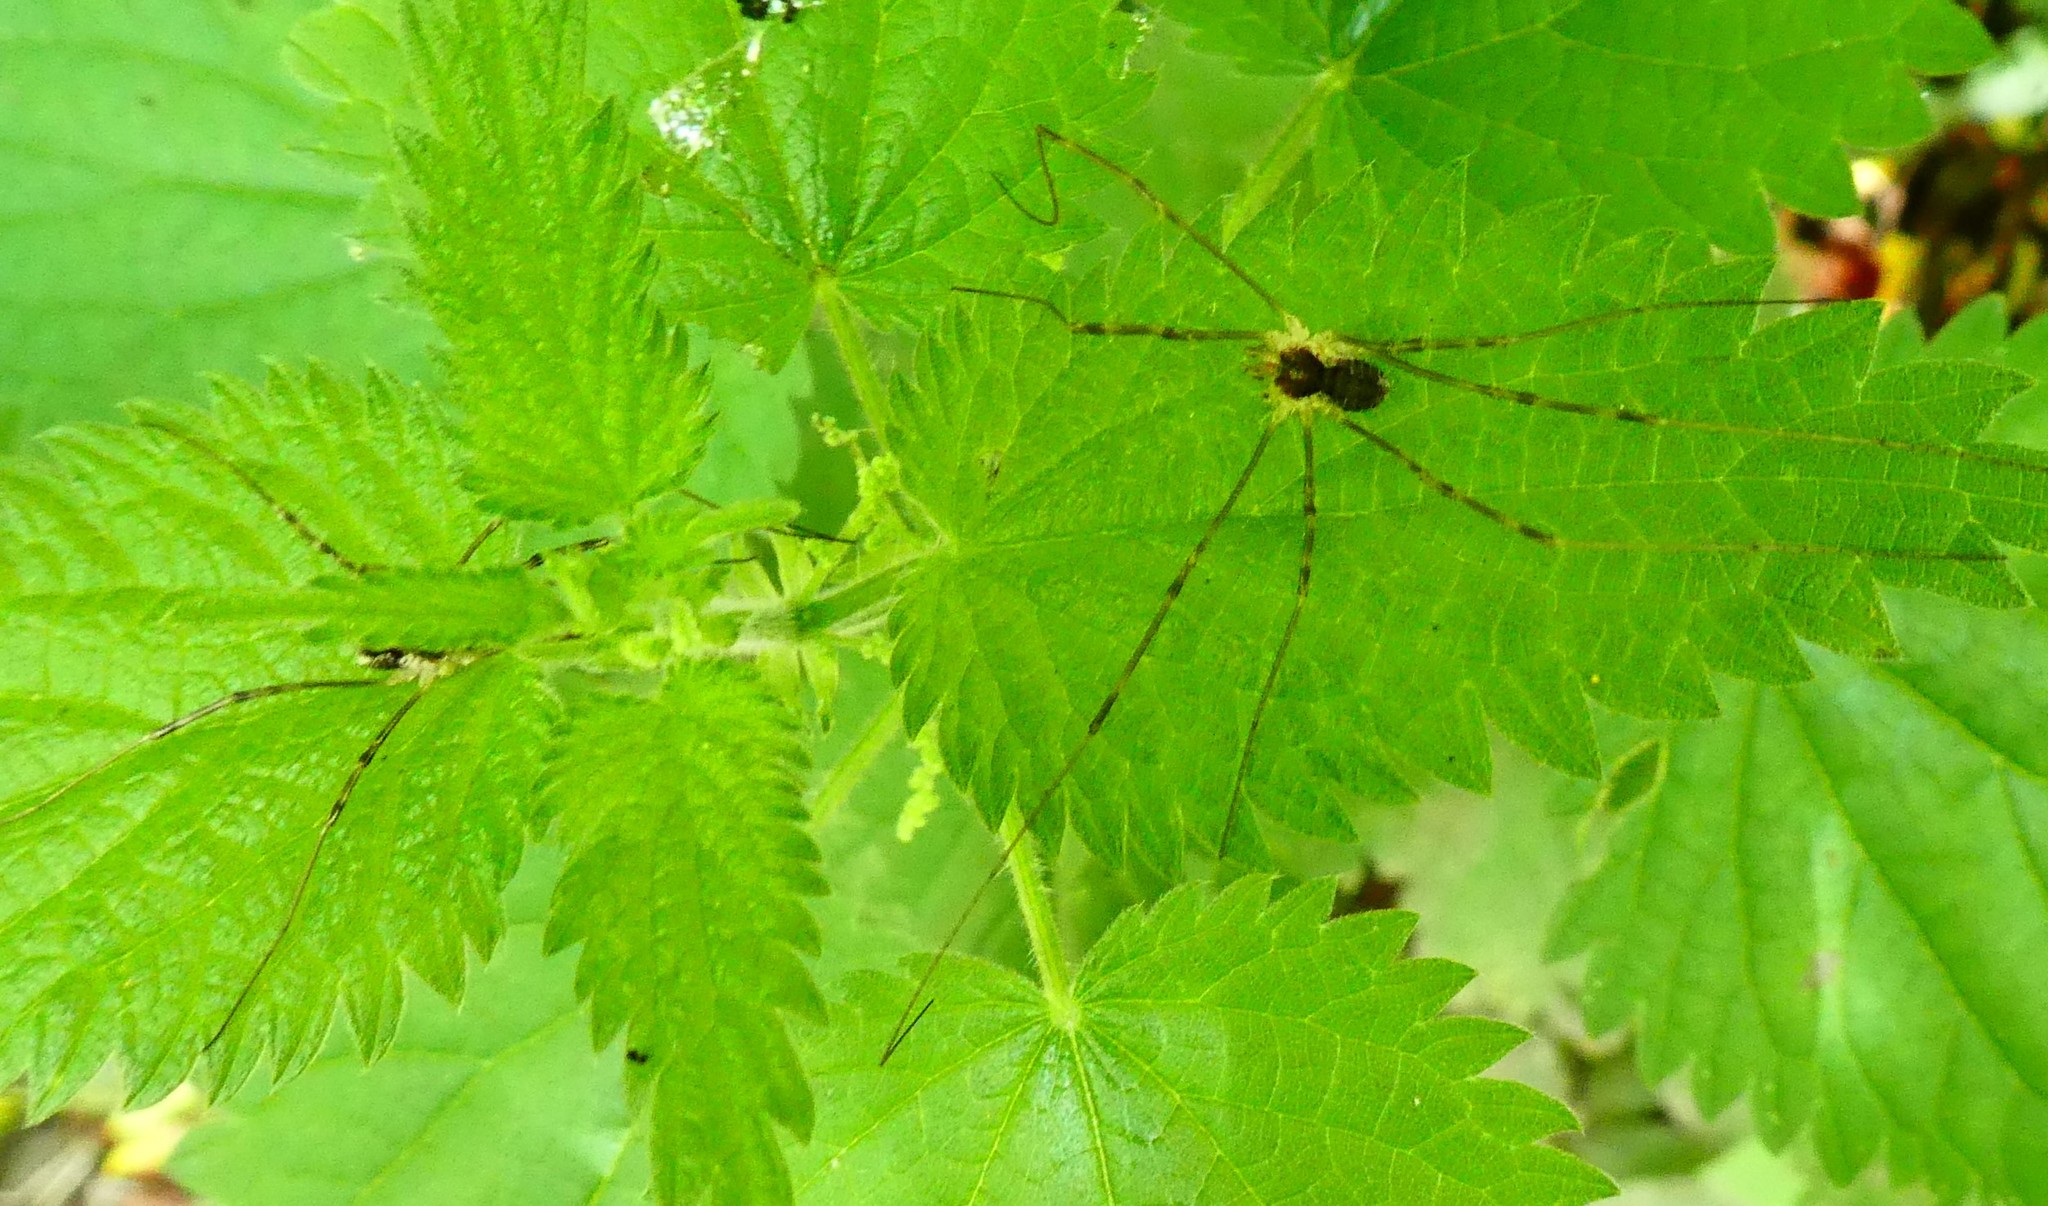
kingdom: Animalia
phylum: Arthropoda
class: Arachnida
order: Opiliones
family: Phalangiidae
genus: Mitopus
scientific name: Mitopus morio
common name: Saddleback harvestman
